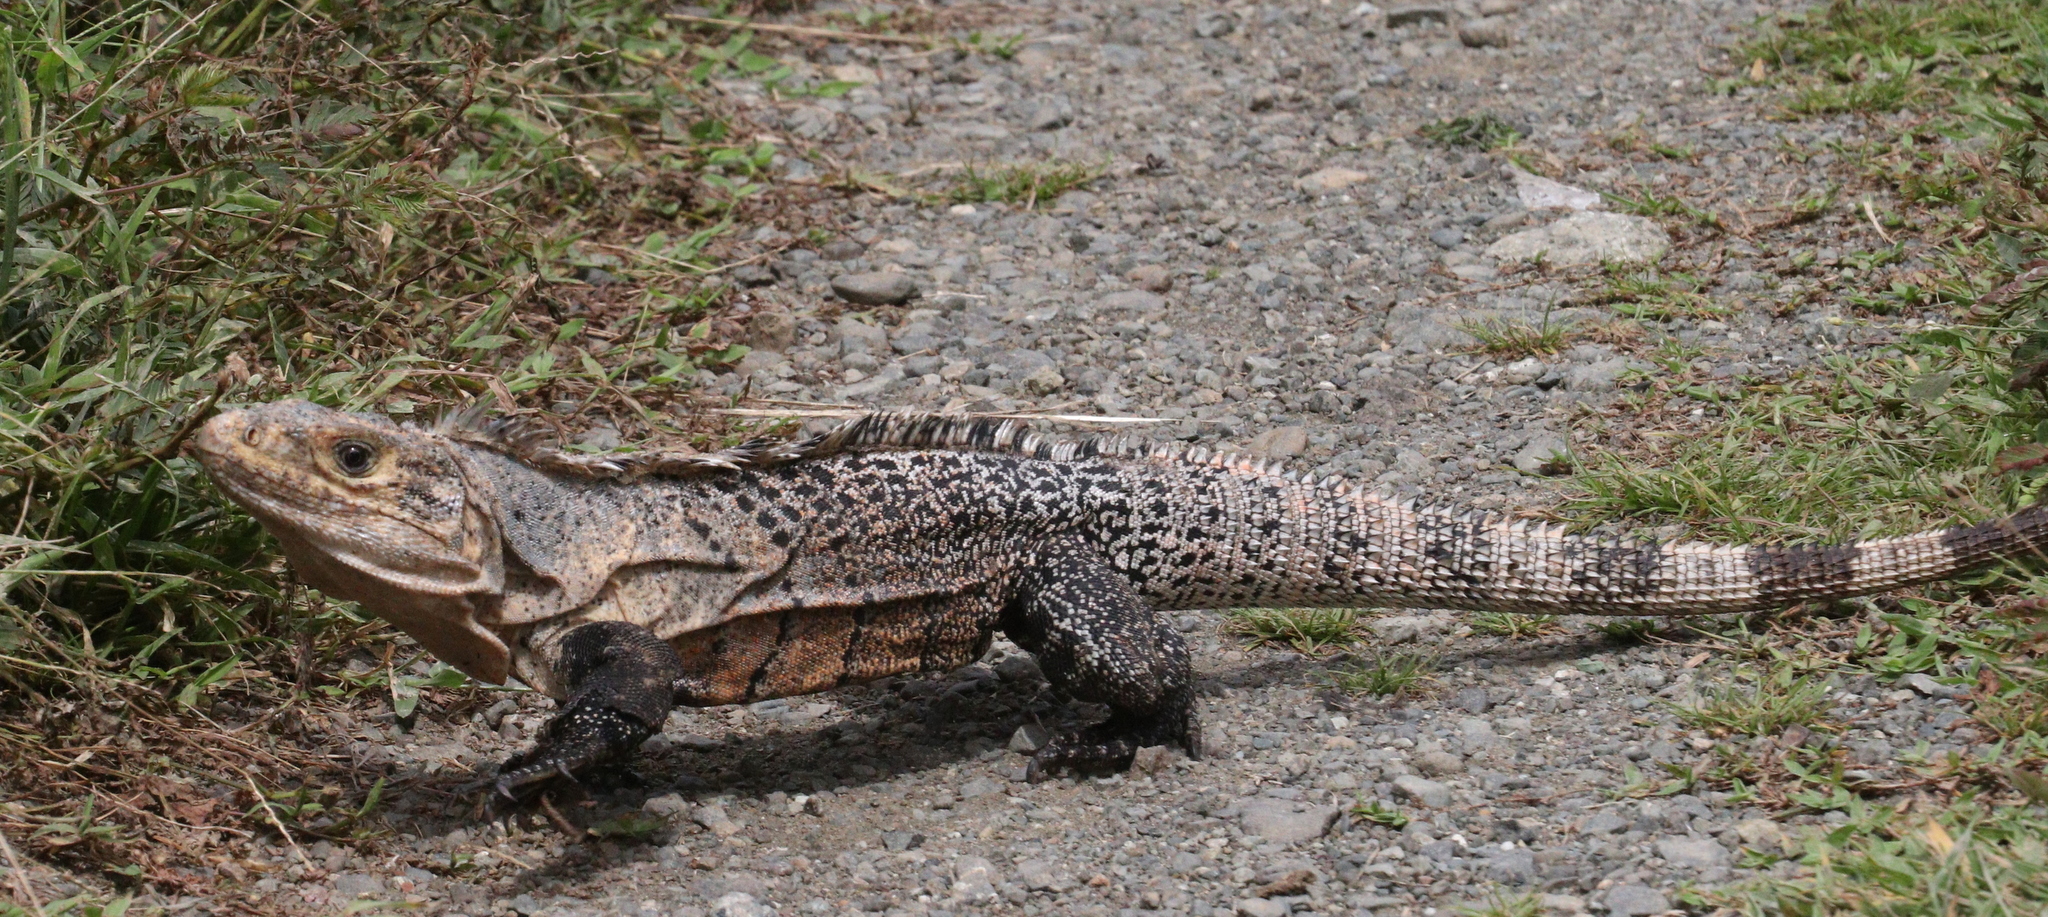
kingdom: Animalia
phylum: Chordata
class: Squamata
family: Iguanidae
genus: Ctenosaura
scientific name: Ctenosaura similis
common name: Black spiny-tailed iguana
